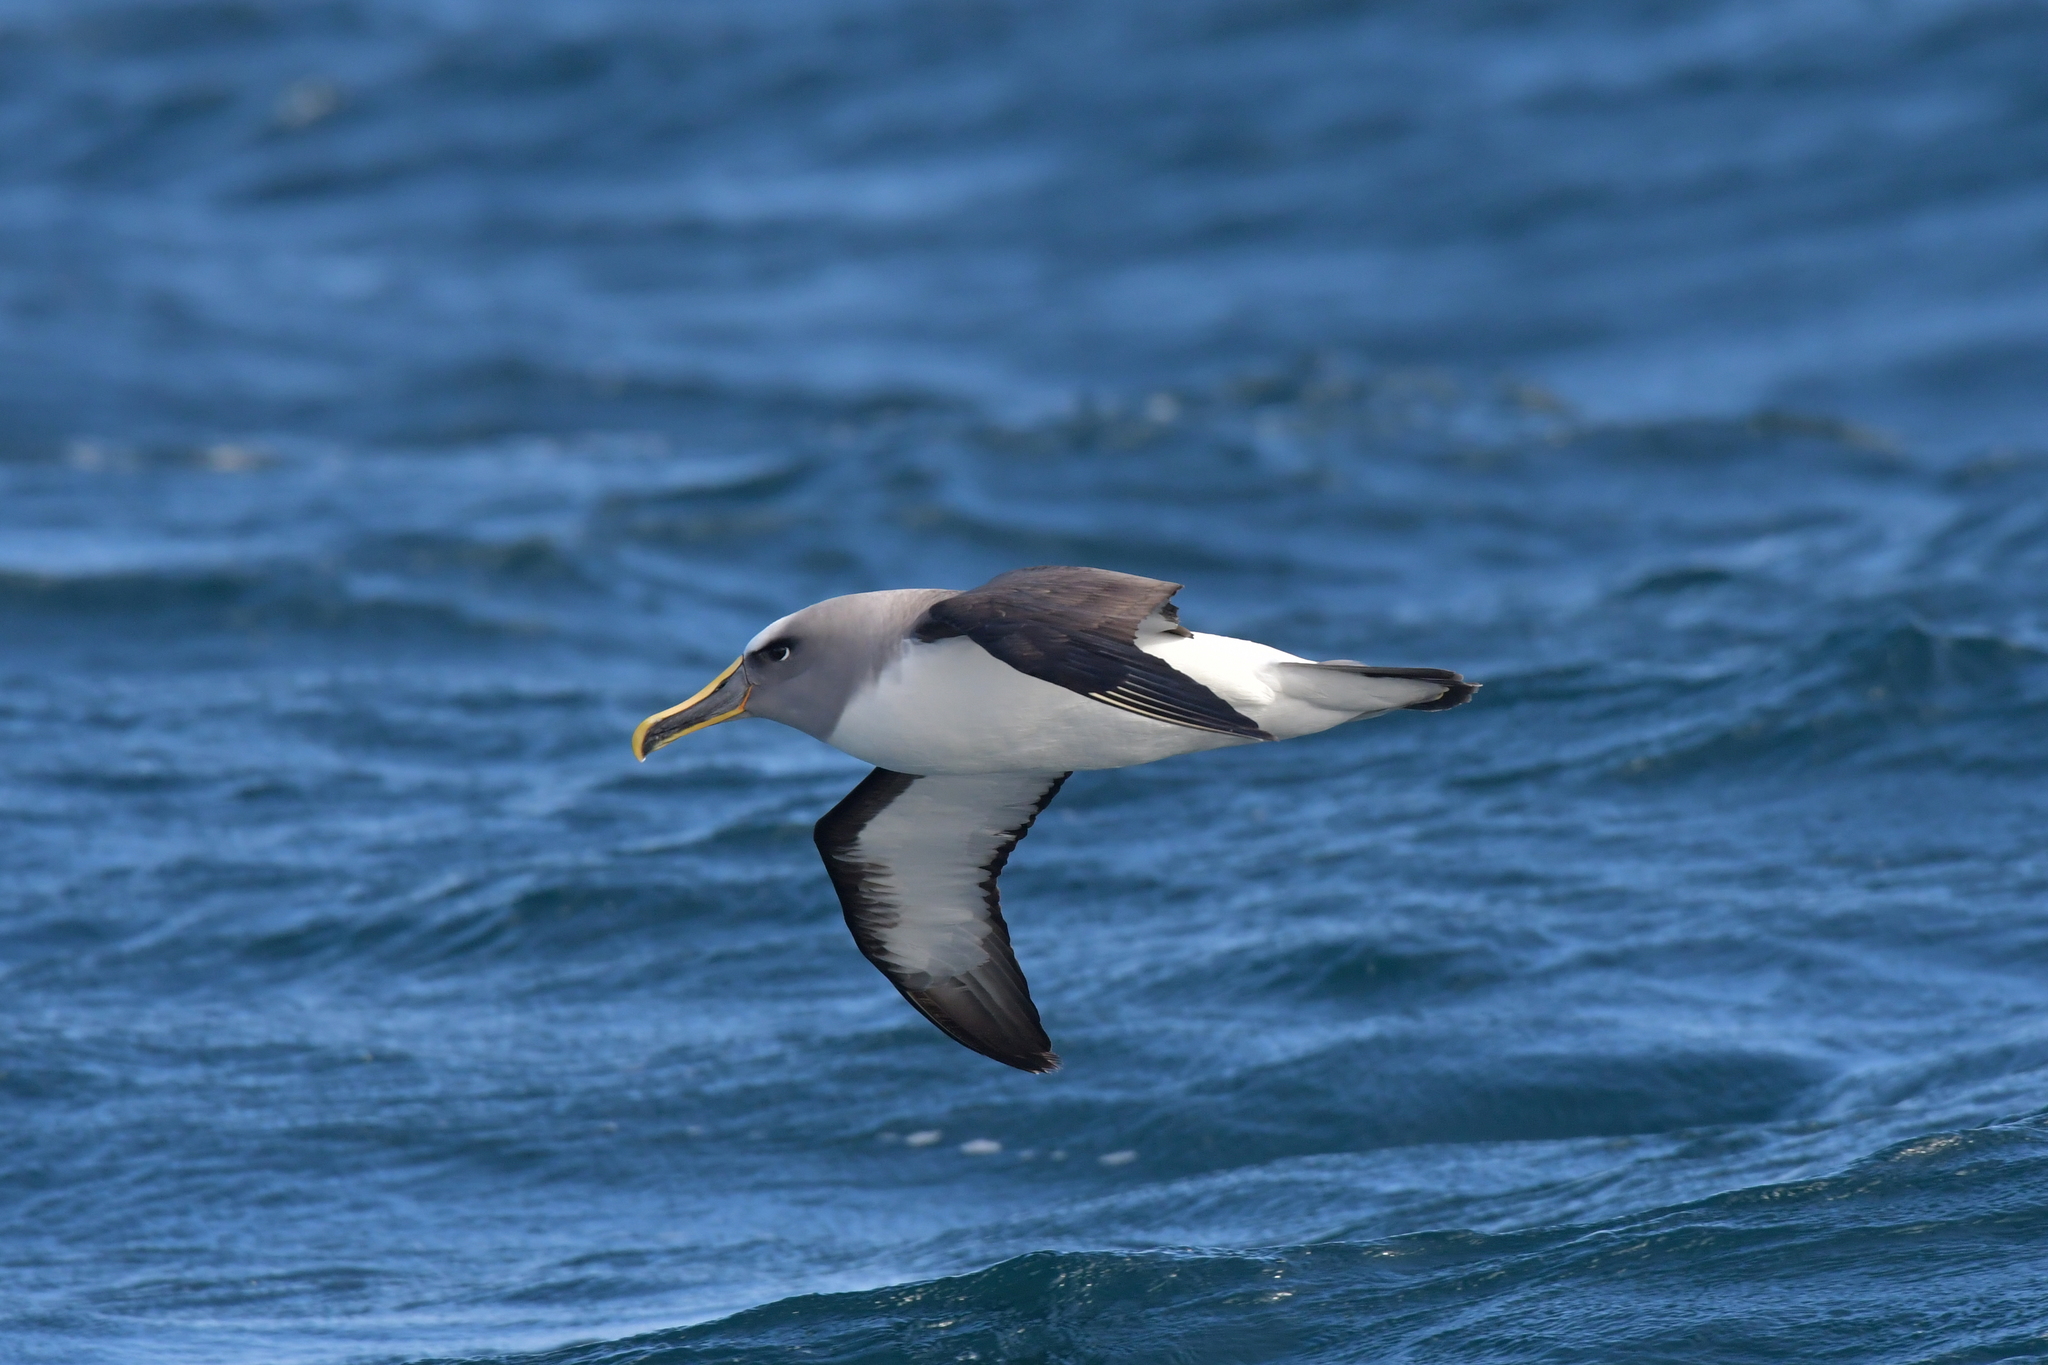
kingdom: Animalia
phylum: Chordata
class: Aves
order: Procellariiformes
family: Diomedeidae
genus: Thalassarche
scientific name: Thalassarche bulleri
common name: Buller's albatross
